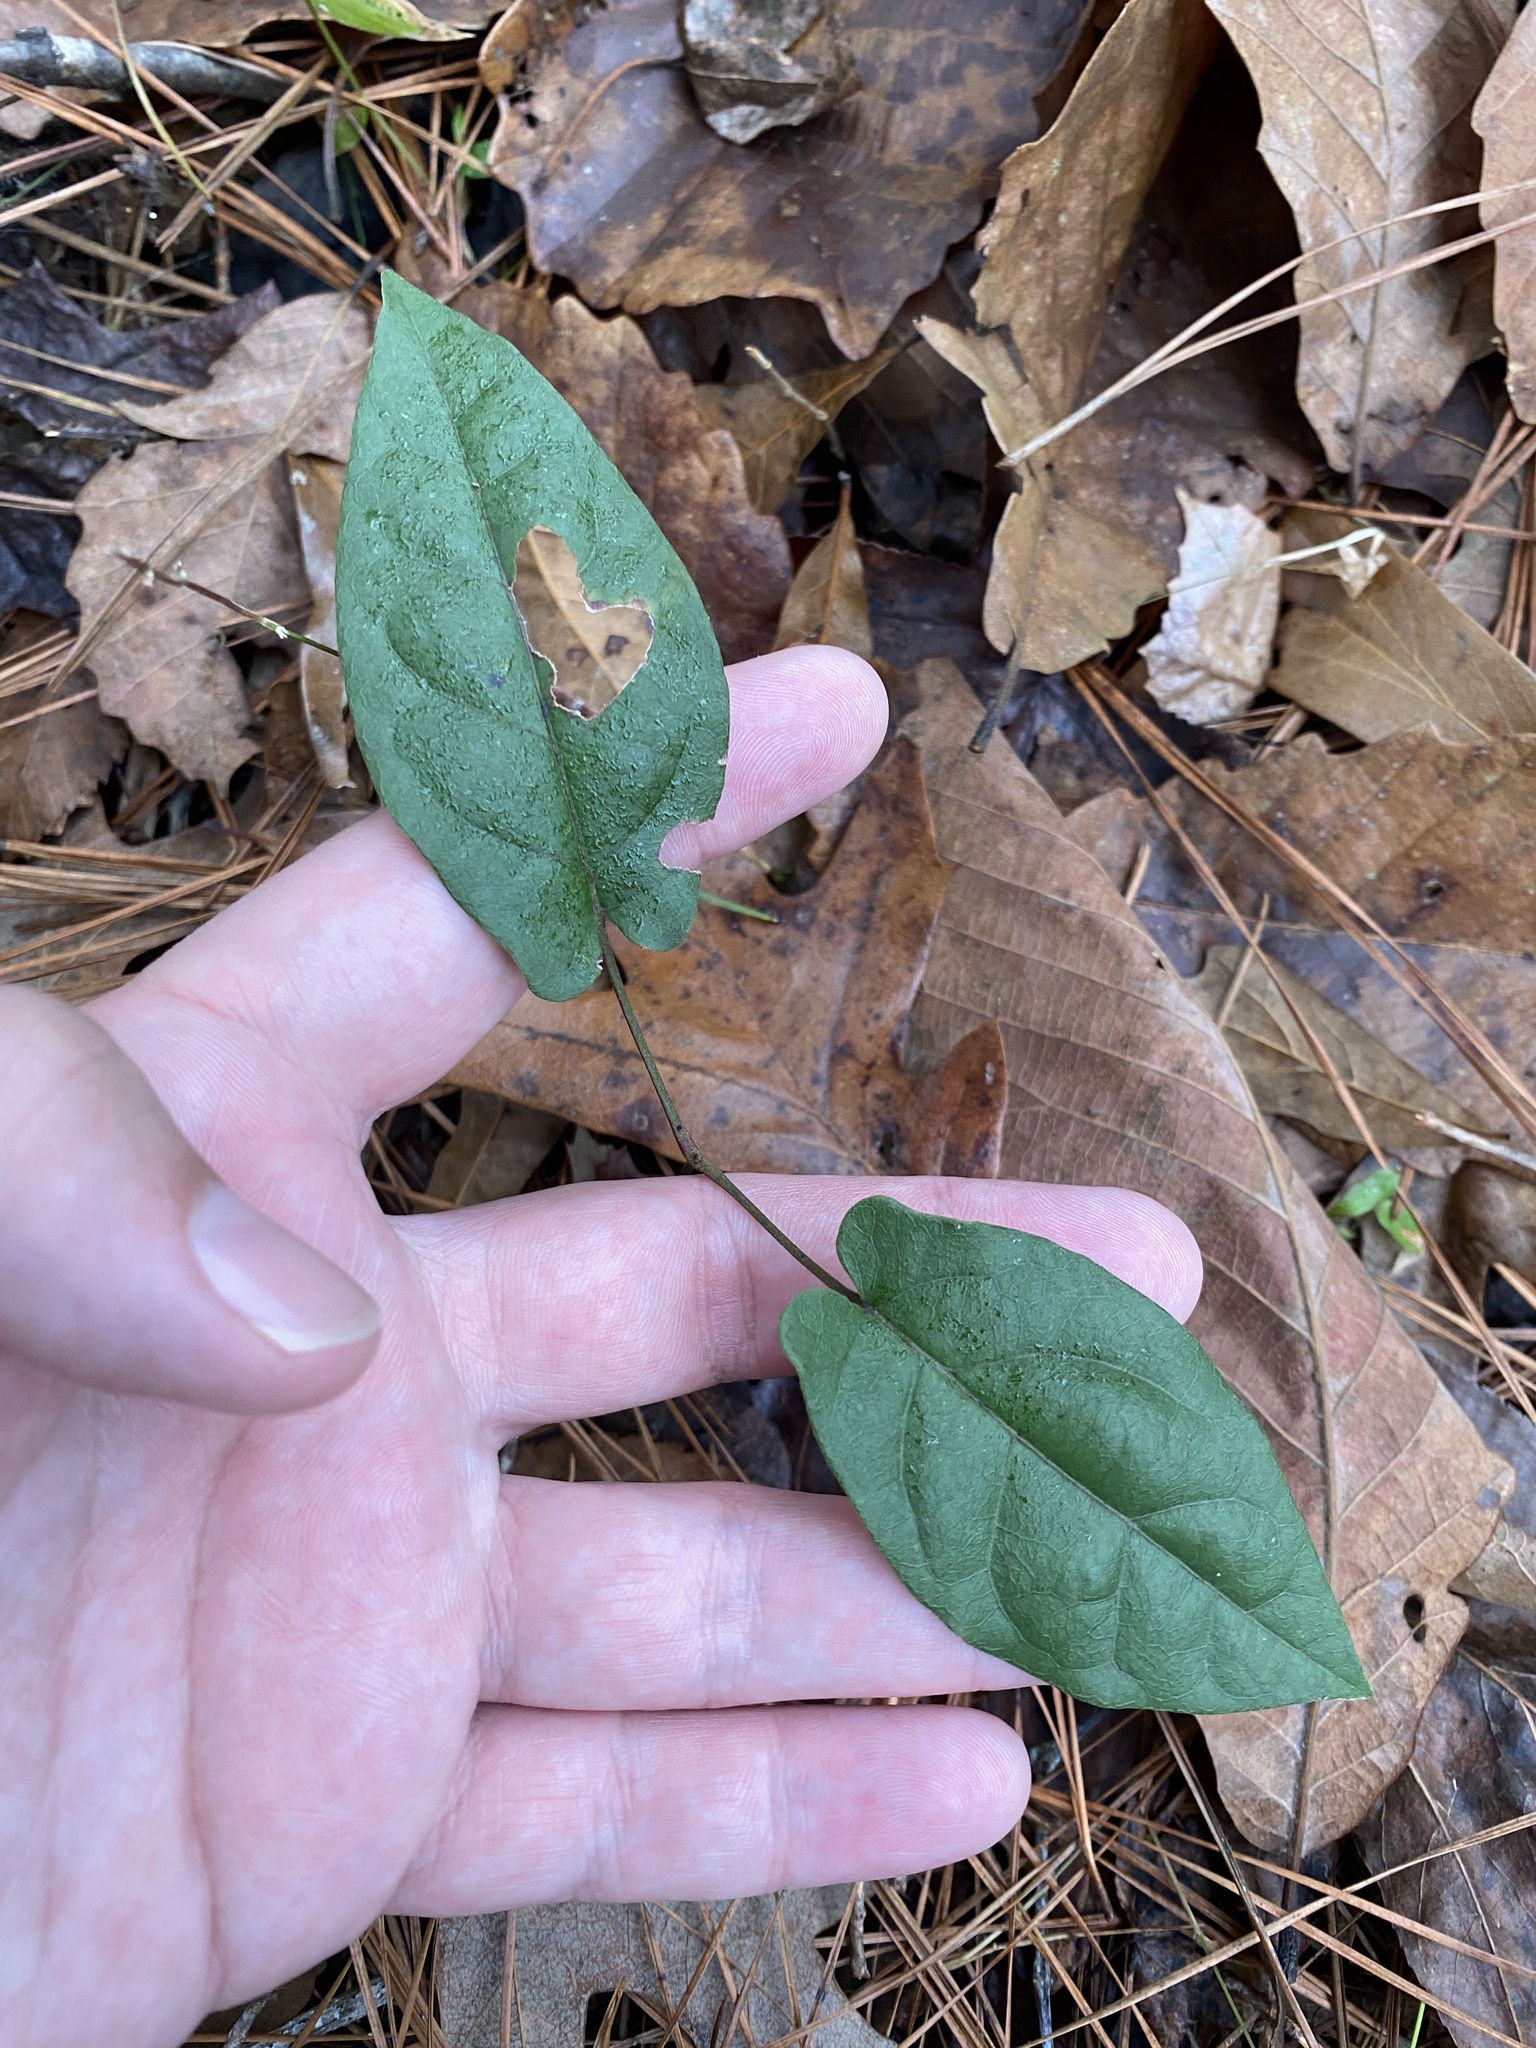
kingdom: Plantae
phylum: Tracheophyta
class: Magnoliopsida
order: Lamiales
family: Bignoniaceae
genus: Bignonia
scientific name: Bignonia capreolata
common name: Crossvine
